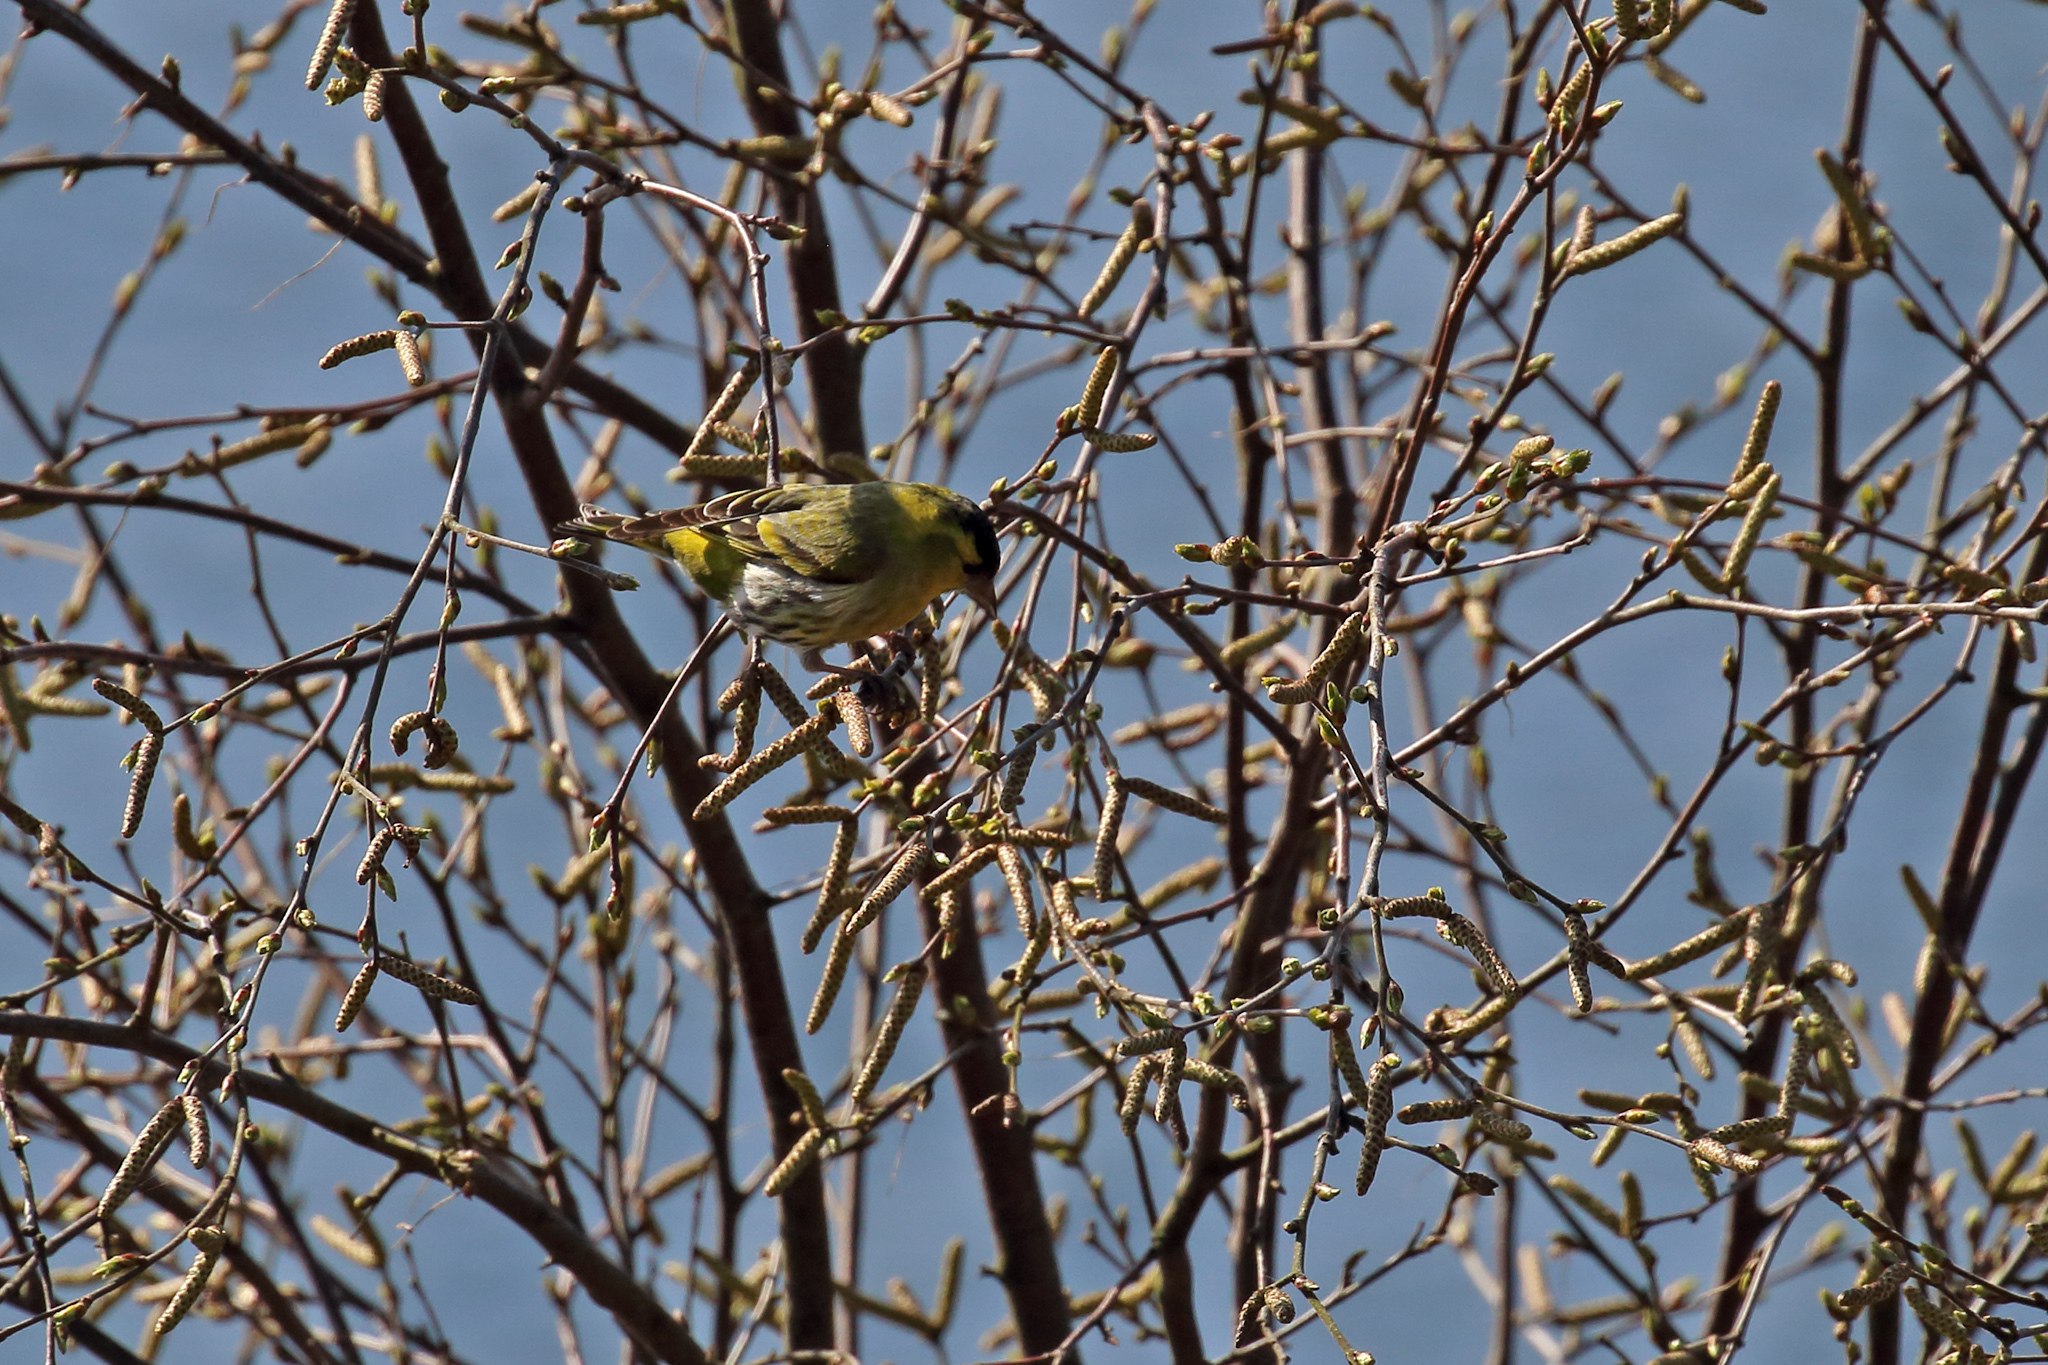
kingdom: Animalia
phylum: Chordata
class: Aves
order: Passeriformes
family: Fringillidae
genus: Spinus
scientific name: Spinus spinus
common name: Eurasian siskin
